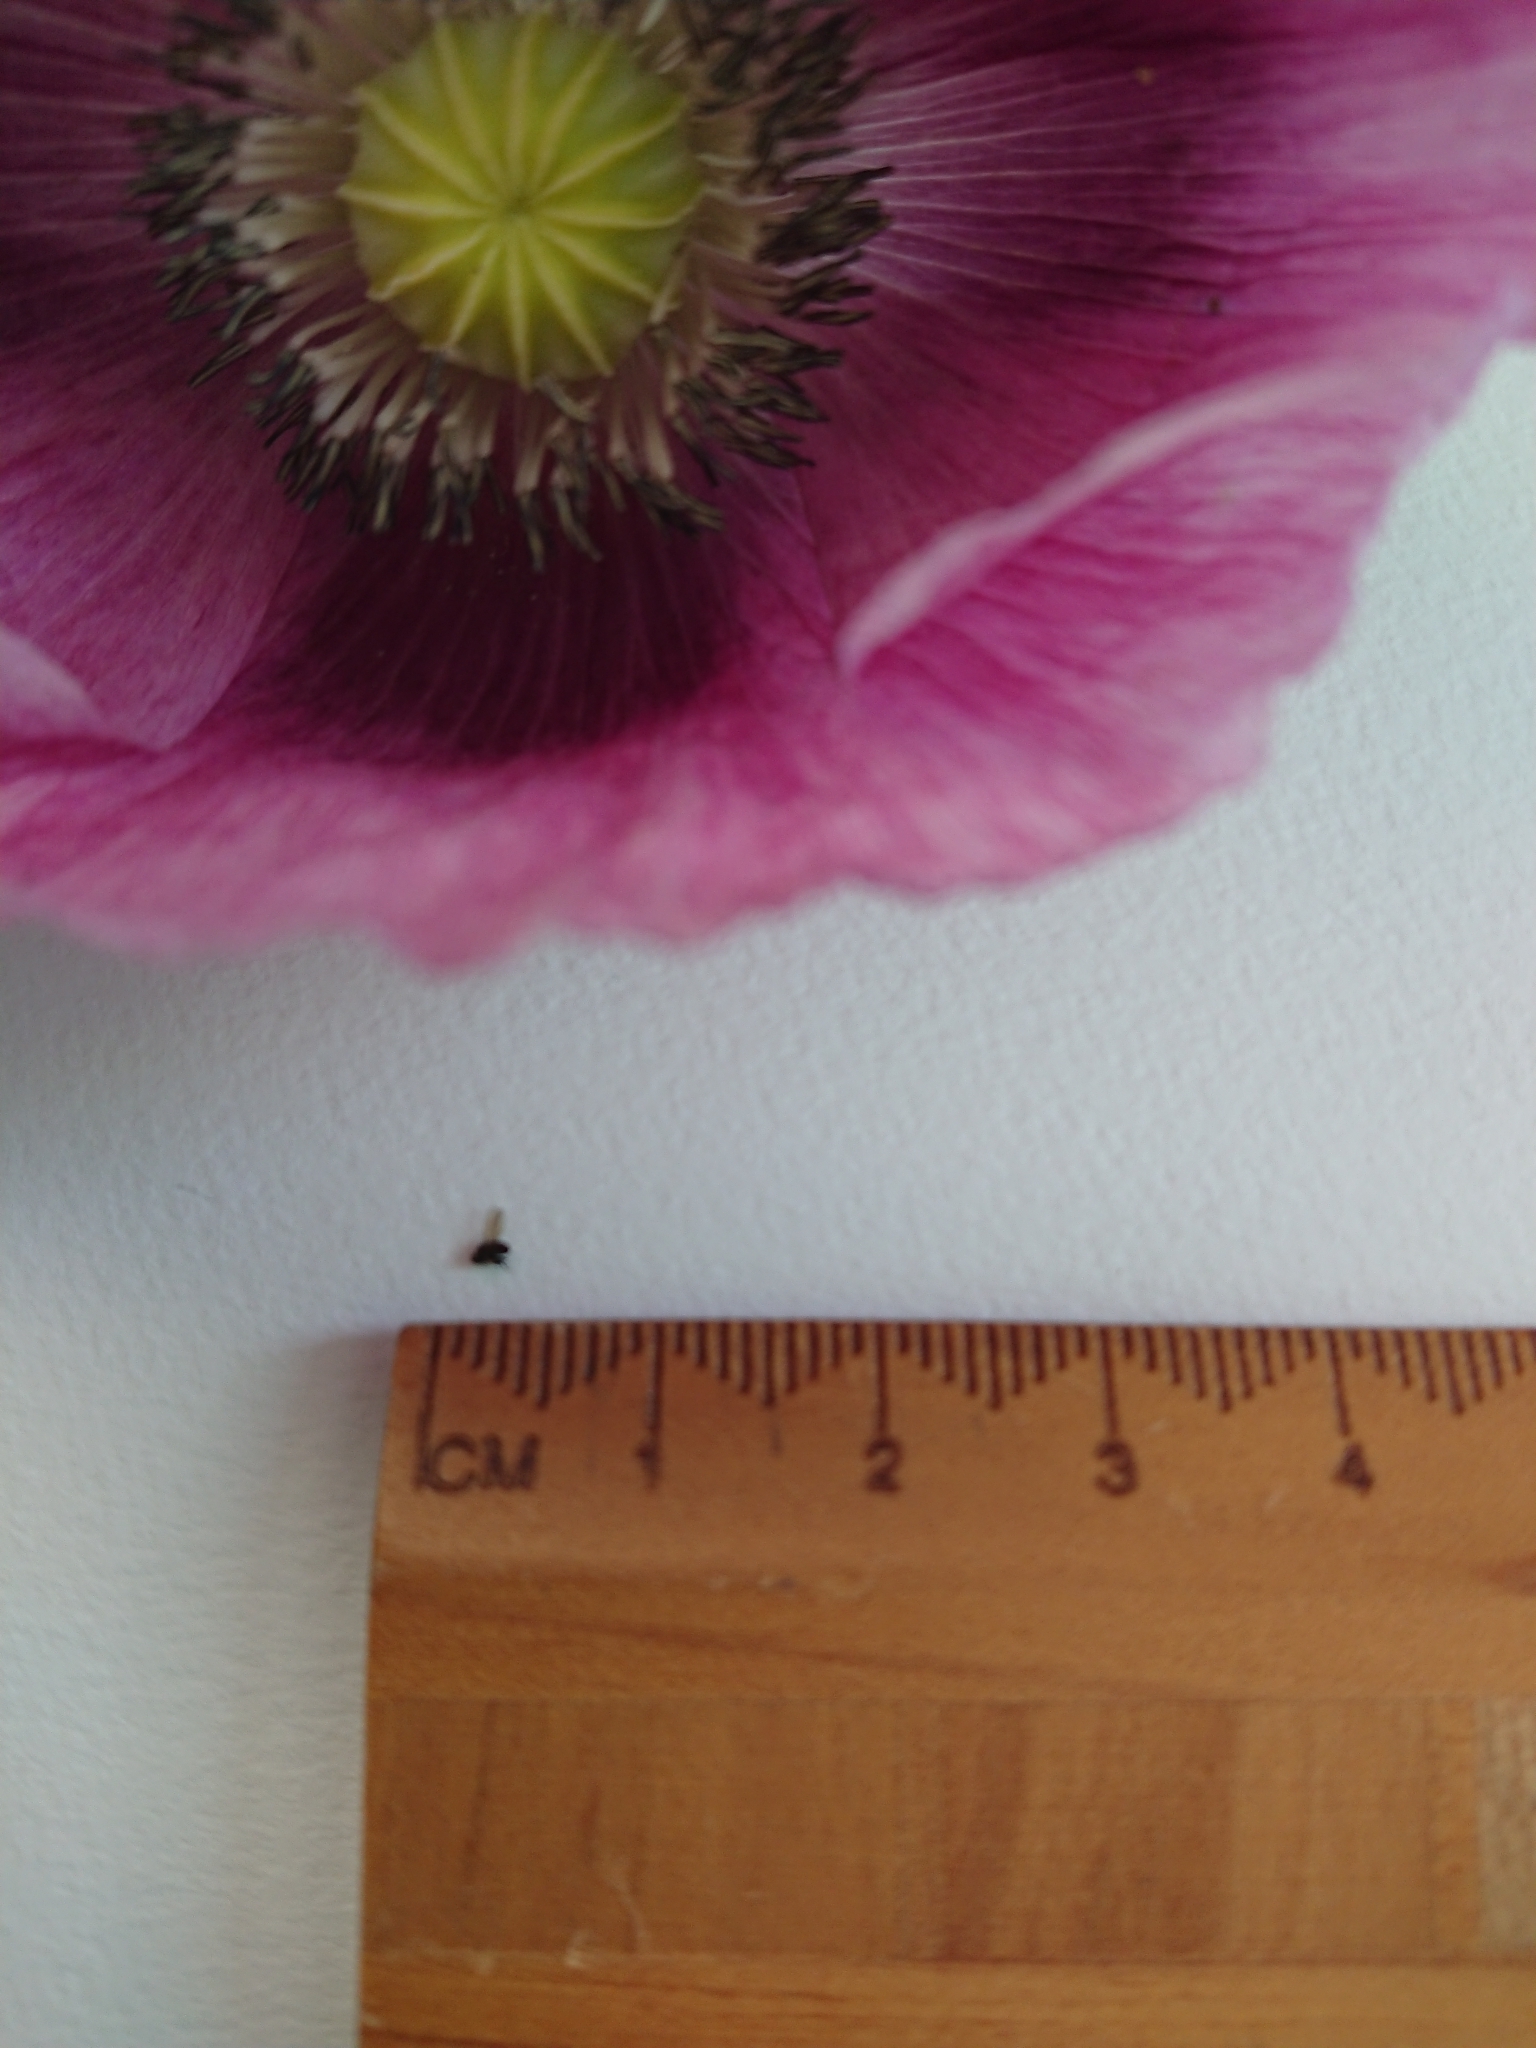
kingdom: Animalia
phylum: Arthropoda
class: Insecta
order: Diptera
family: Ephydridae
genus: Diasemocera
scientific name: Diasemocera metallica
